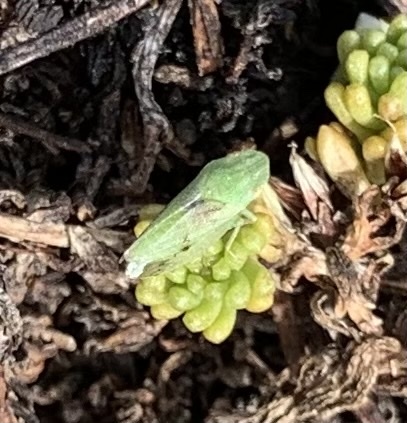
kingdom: Animalia
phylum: Arthropoda
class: Insecta
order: Hemiptera
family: Cicadellidae
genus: Xerophloea
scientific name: Xerophloea viridis
